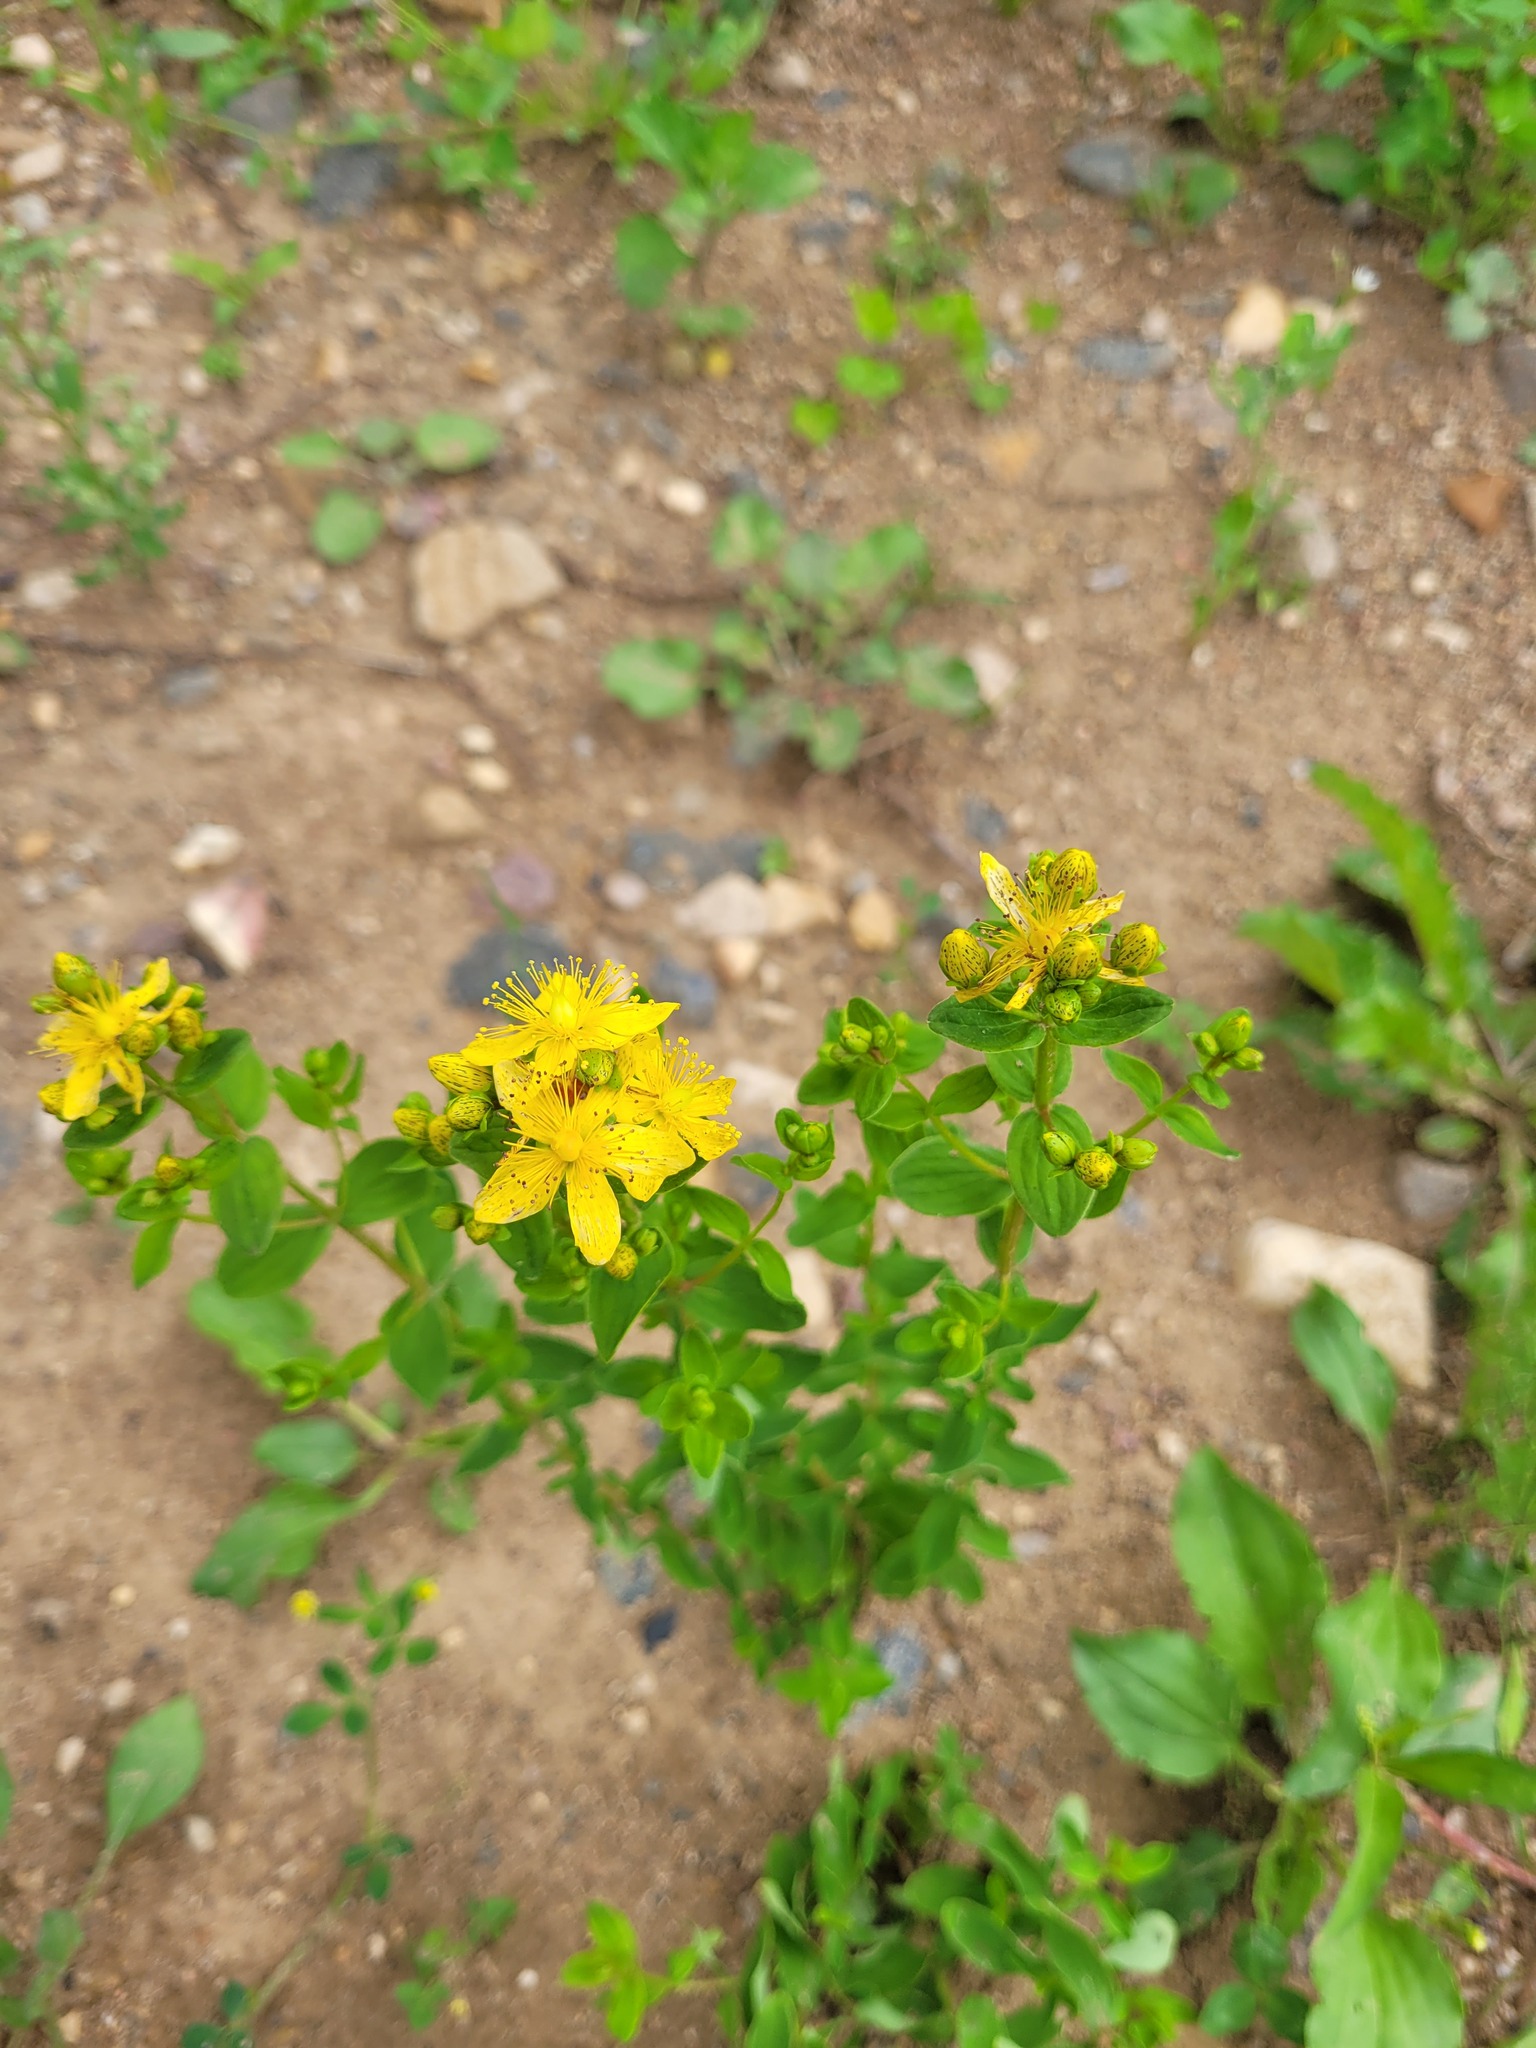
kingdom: Plantae
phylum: Tracheophyta
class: Magnoliopsida
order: Malpighiales
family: Hypericaceae
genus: Hypericum
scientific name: Hypericum maculatum
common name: Imperforate st. john's-wort
